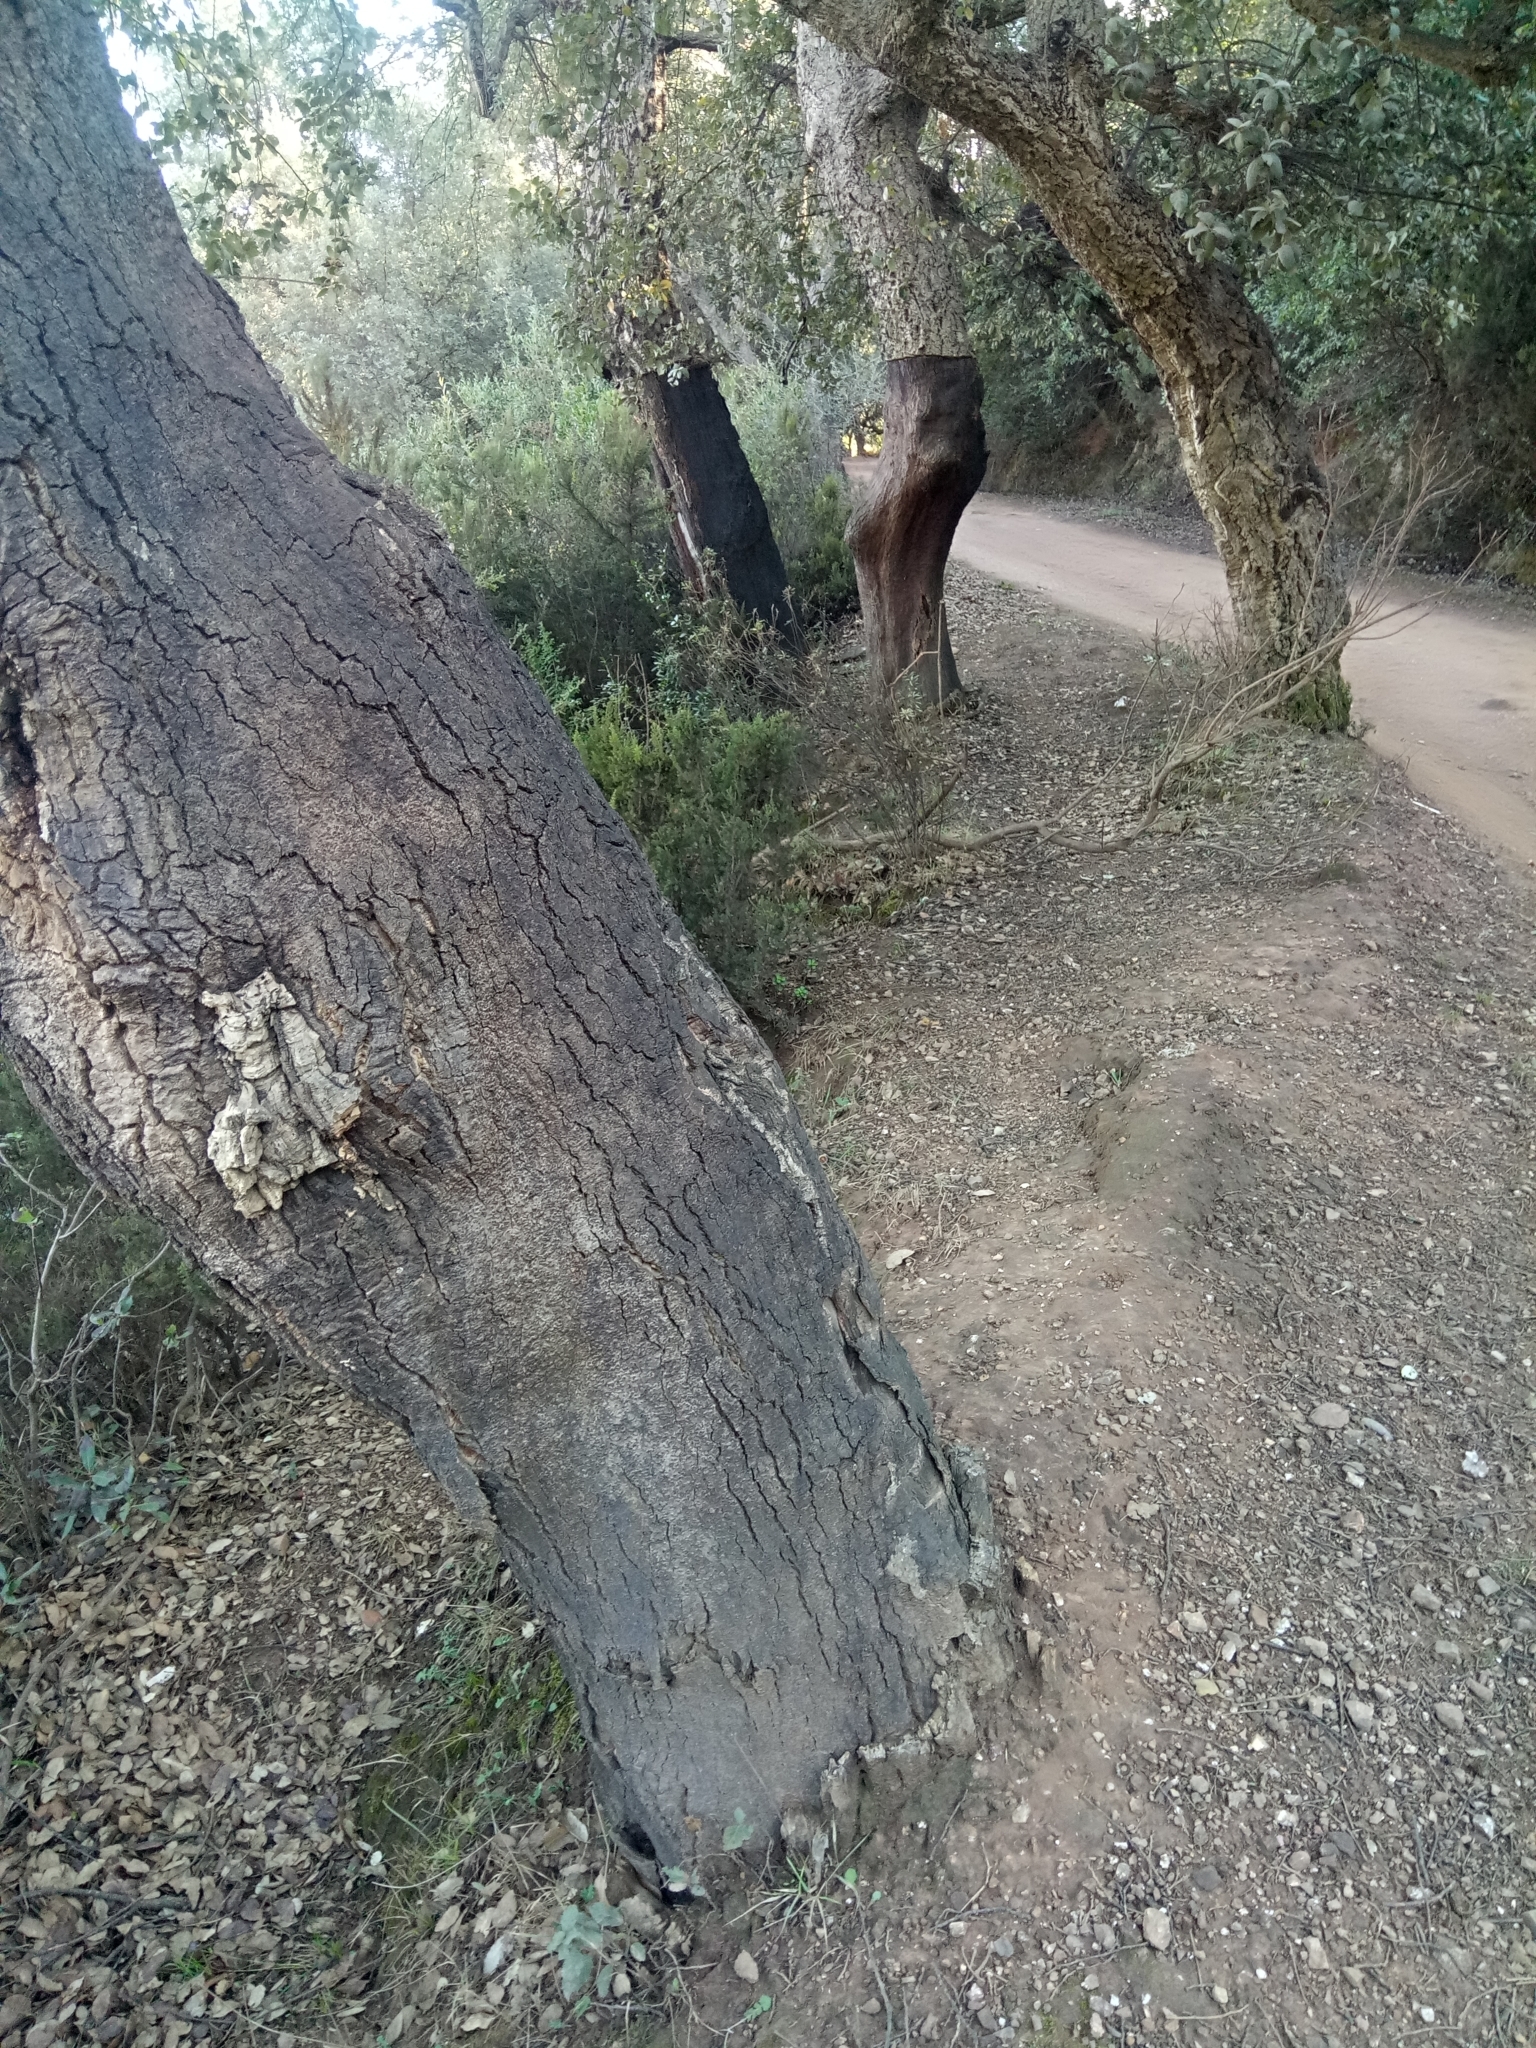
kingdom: Plantae
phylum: Tracheophyta
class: Magnoliopsida
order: Fagales
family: Fagaceae
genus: Quercus
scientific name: Quercus suber
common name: Cork oak
